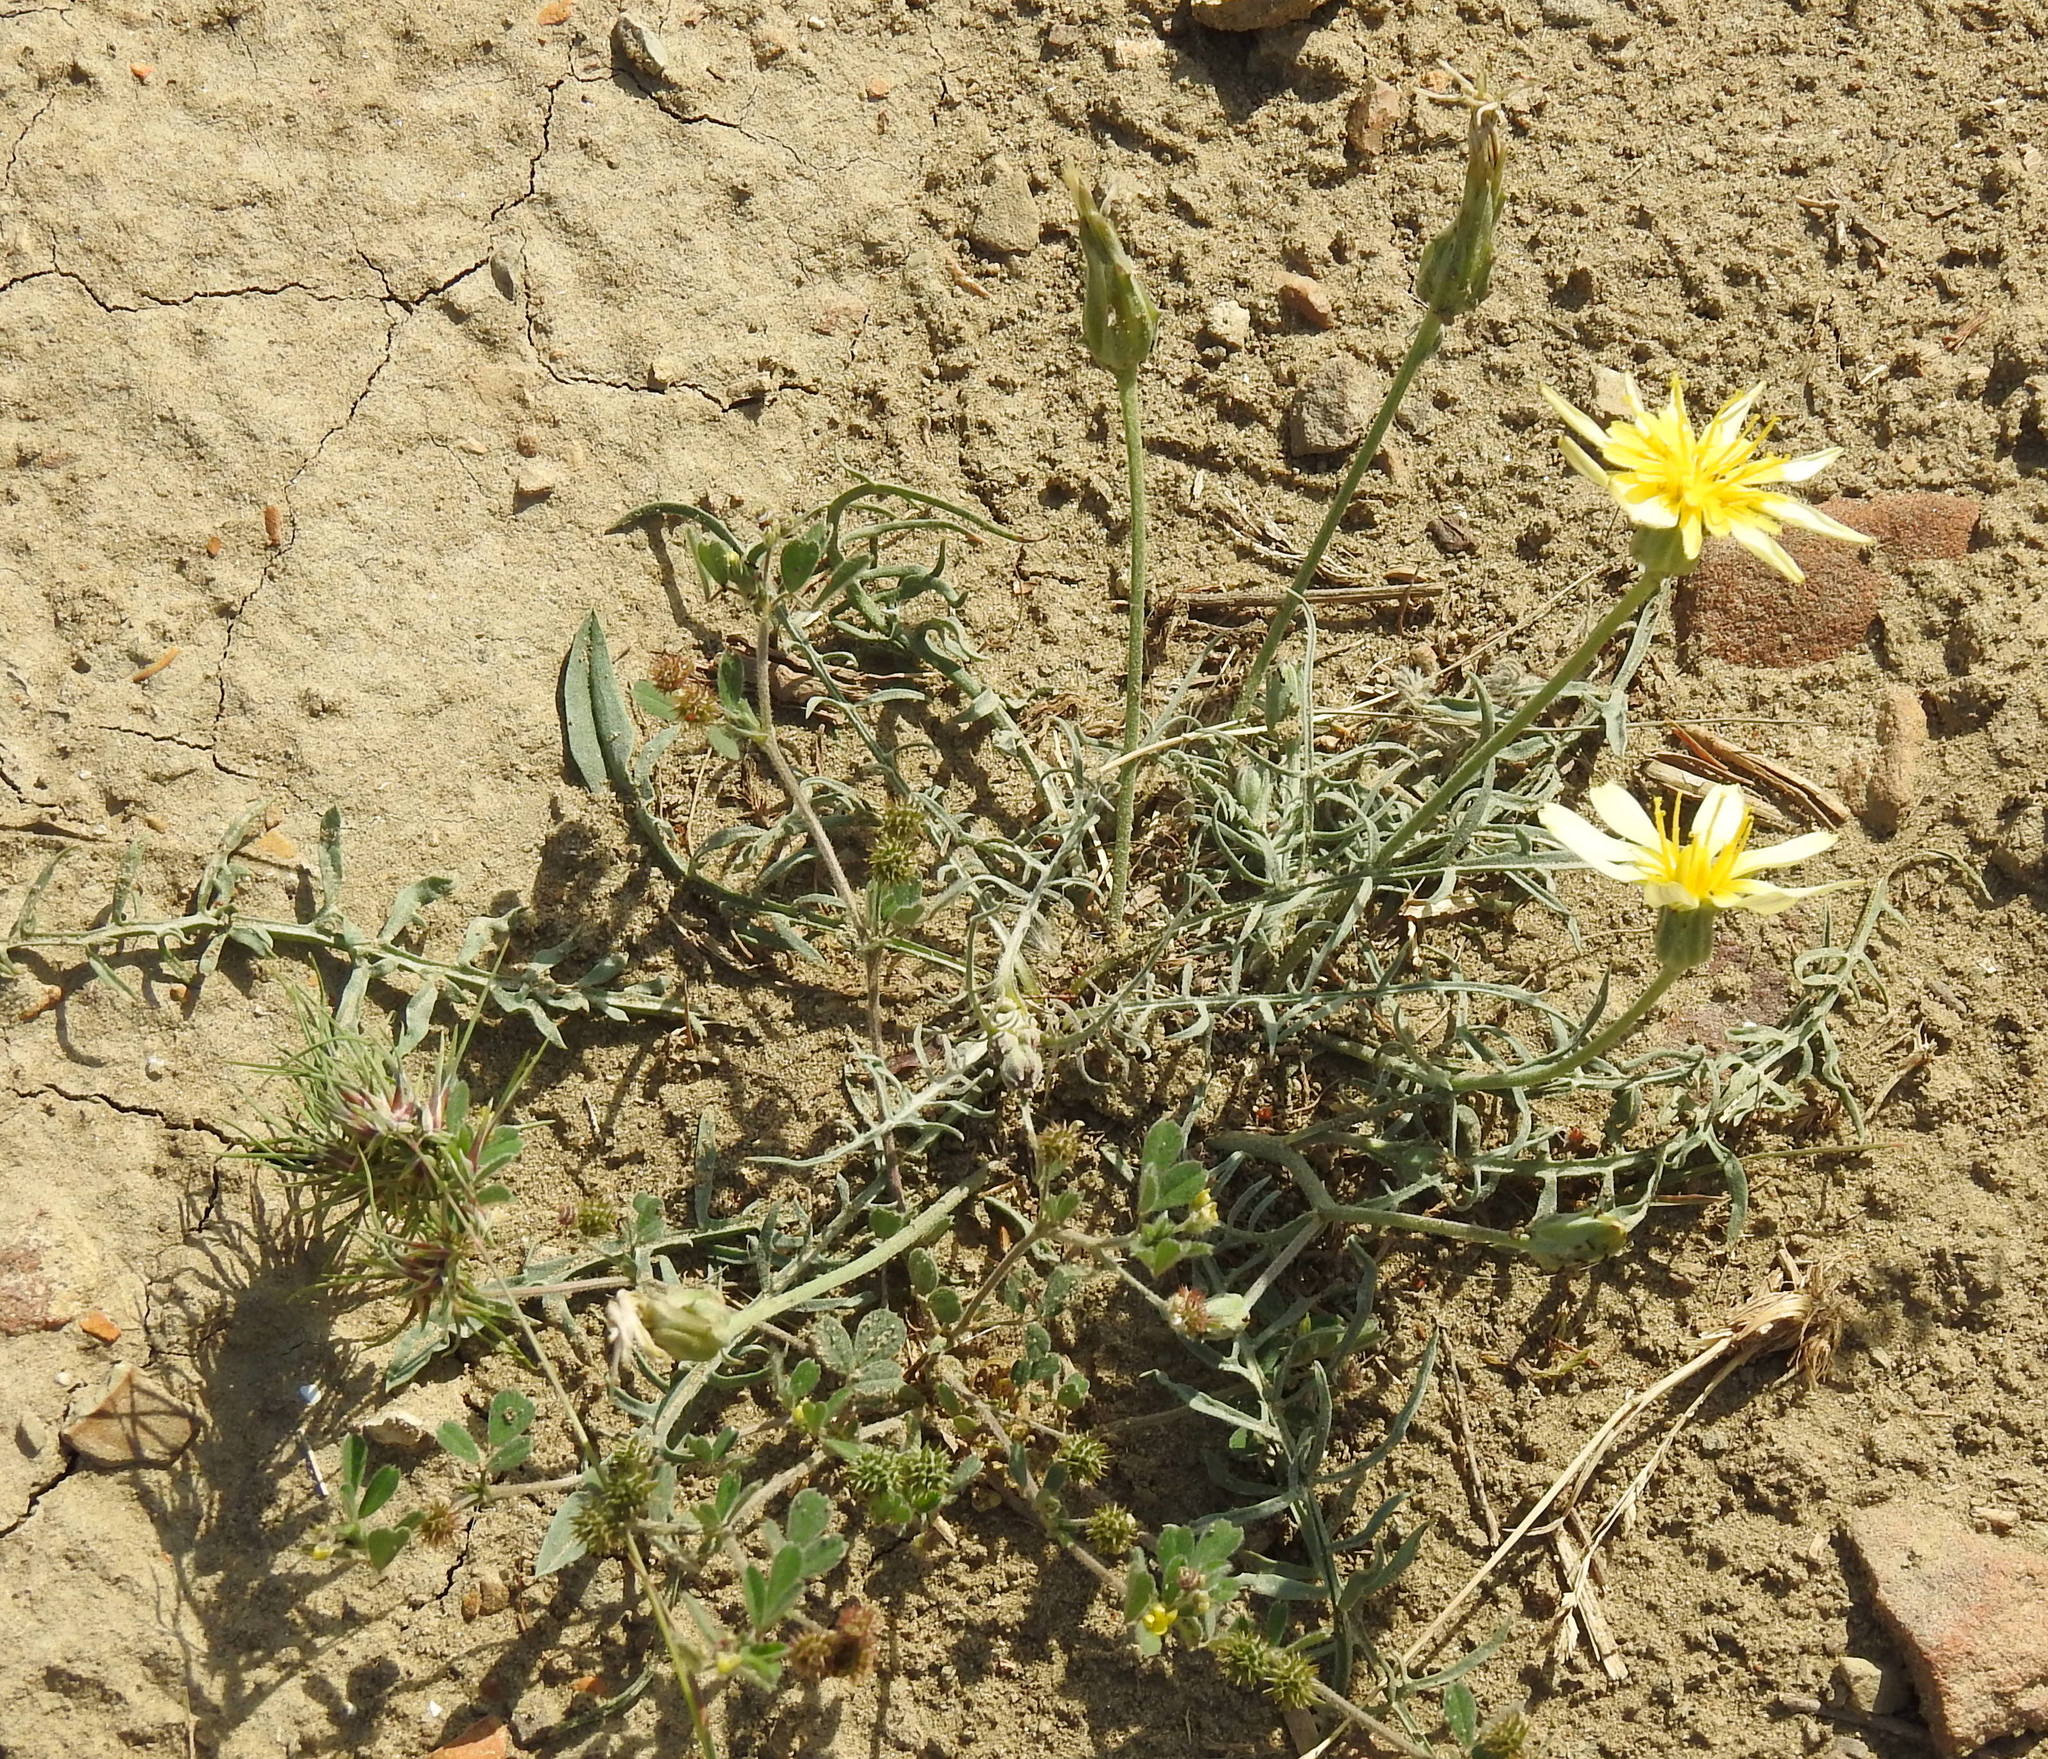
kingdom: Plantae
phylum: Tracheophyta
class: Magnoliopsida
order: Asterales
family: Asteraceae
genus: Scorzonera
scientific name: Scorzonera laciniata
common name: Cutleaf vipergrass
